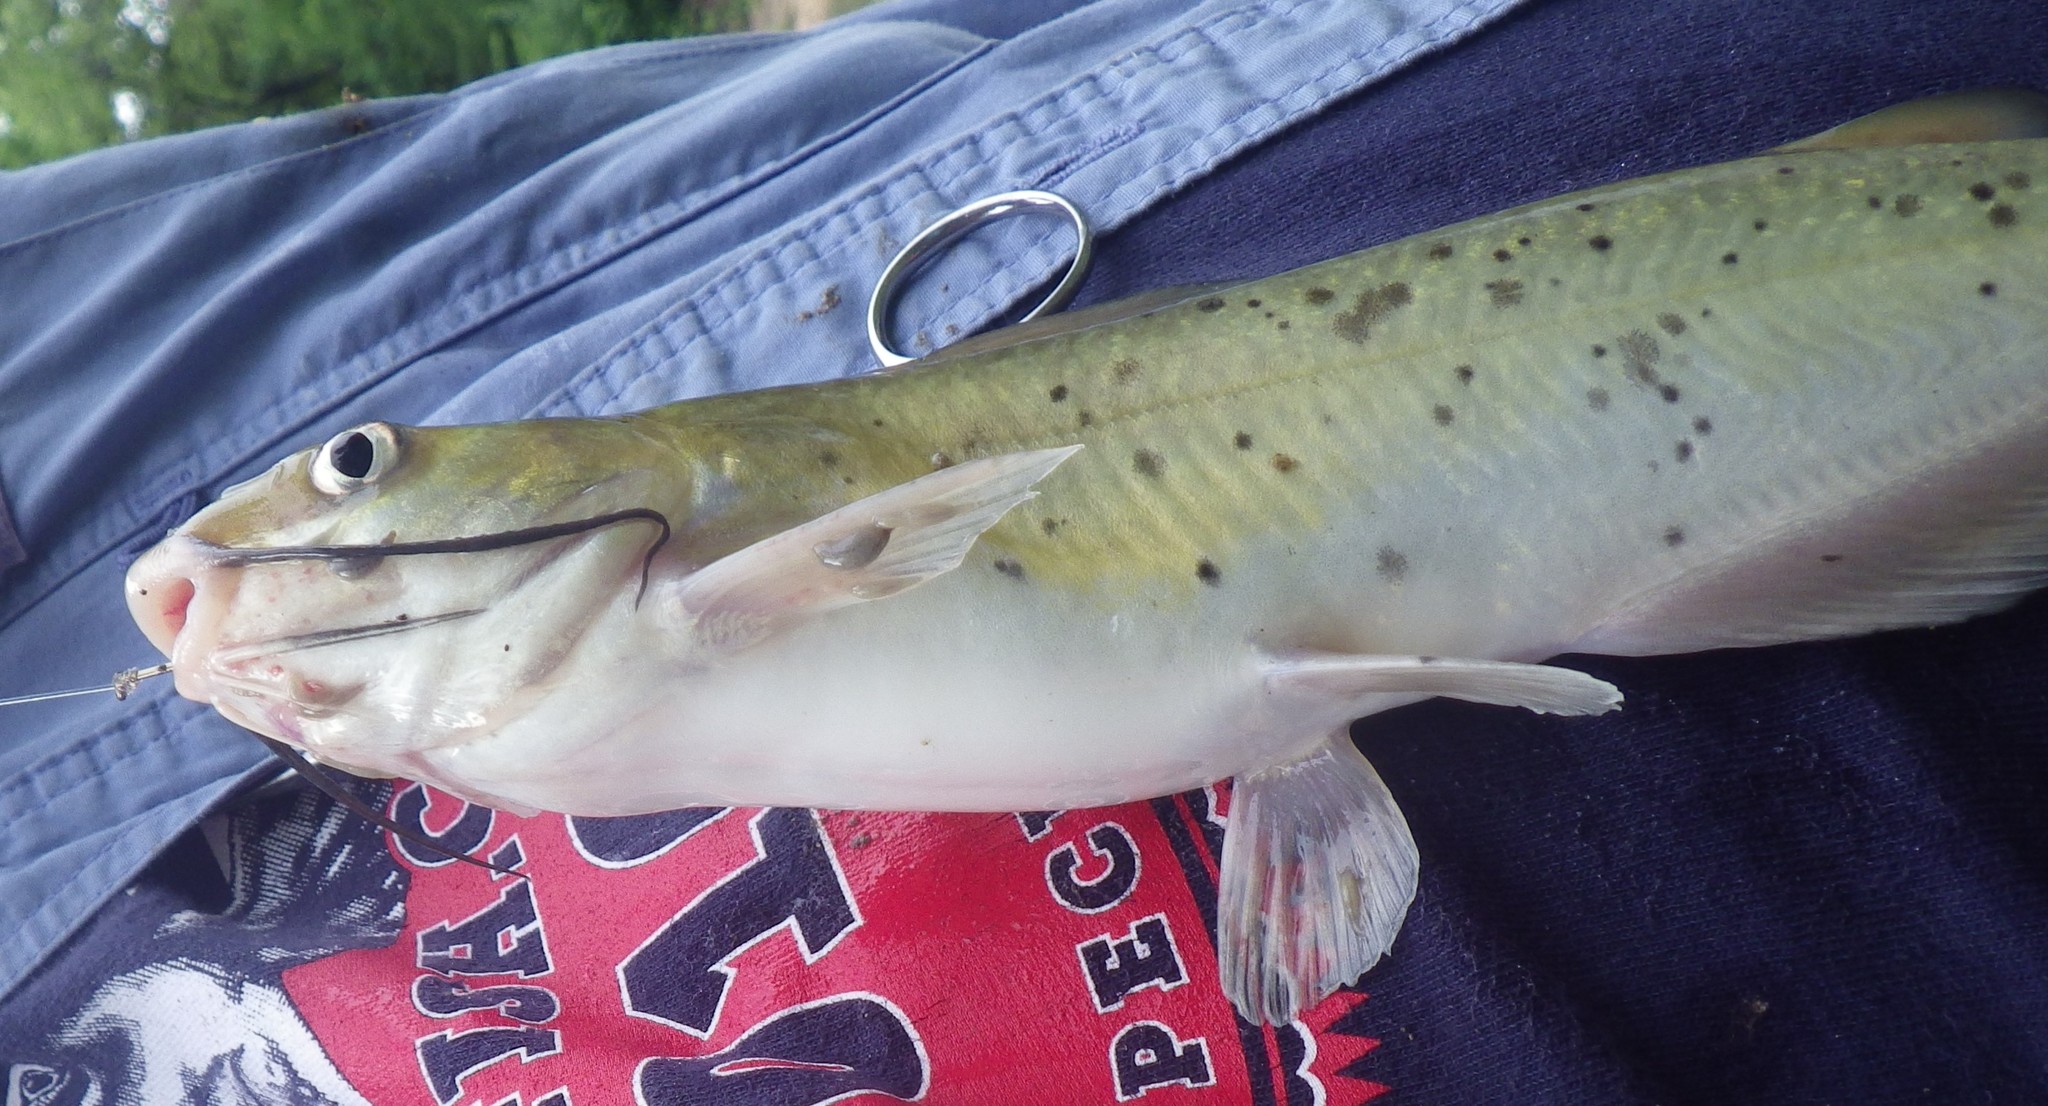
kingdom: Animalia
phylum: Chordata
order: Siluriformes
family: Ictaluridae
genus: Ictalurus
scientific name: Ictalurus punctatus
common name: Channel catfish
